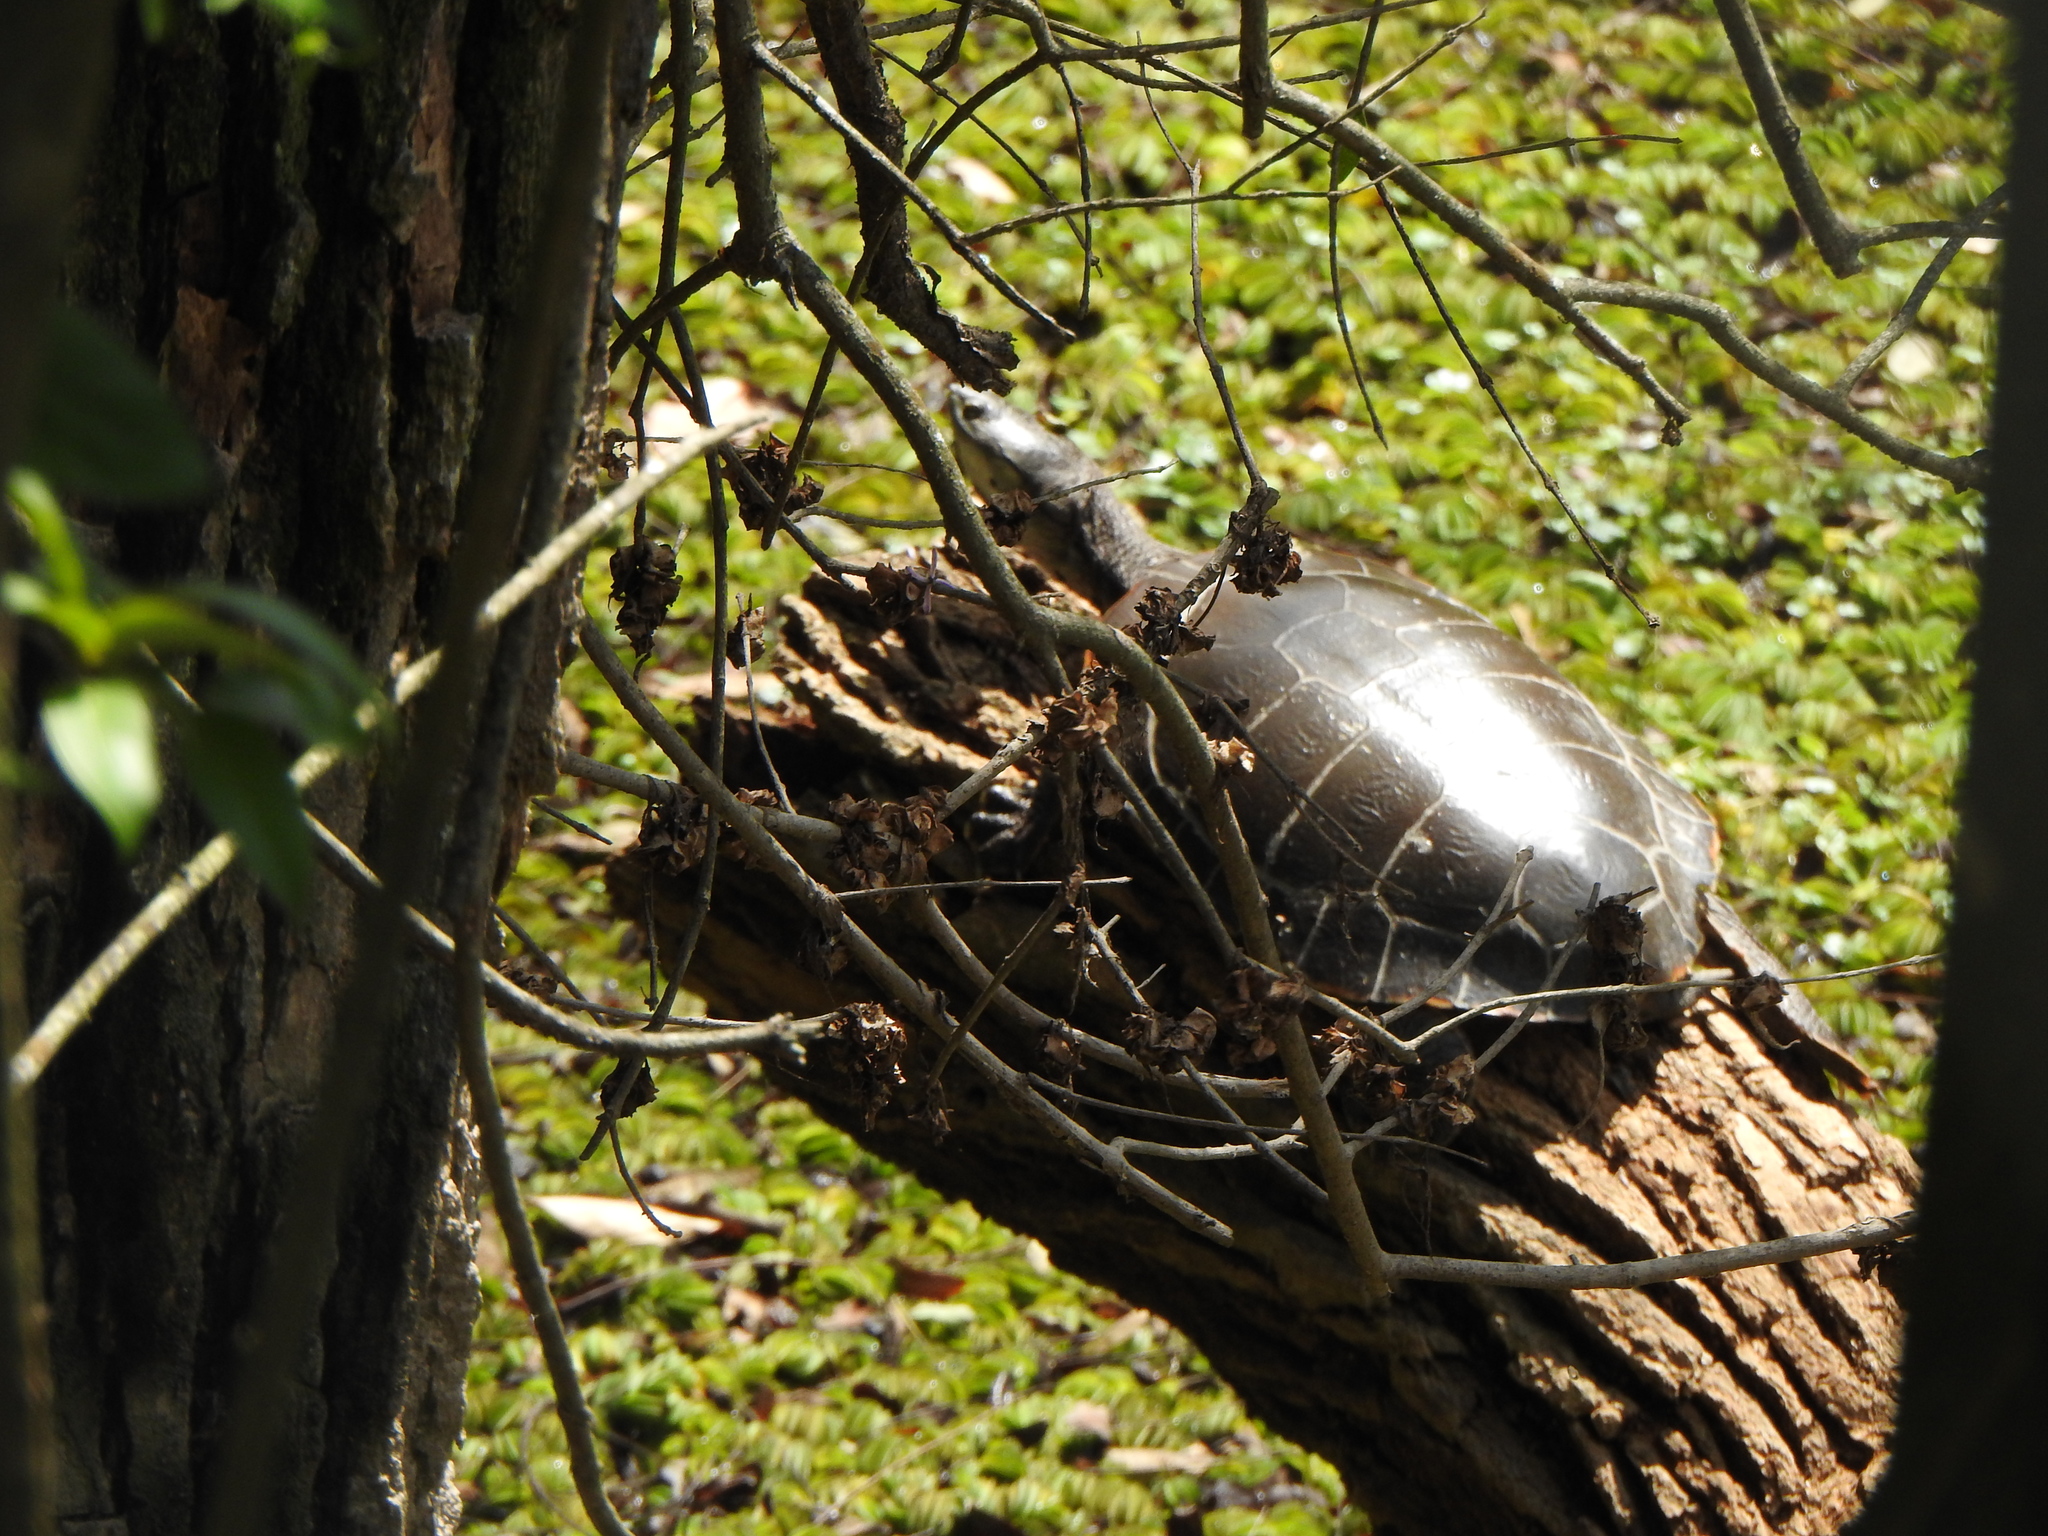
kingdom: Animalia
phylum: Chordata
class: Testudines
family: Chelidae
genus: Phrynops
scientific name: Phrynops hilarii
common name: Side-necked turtle of saint hillaire
